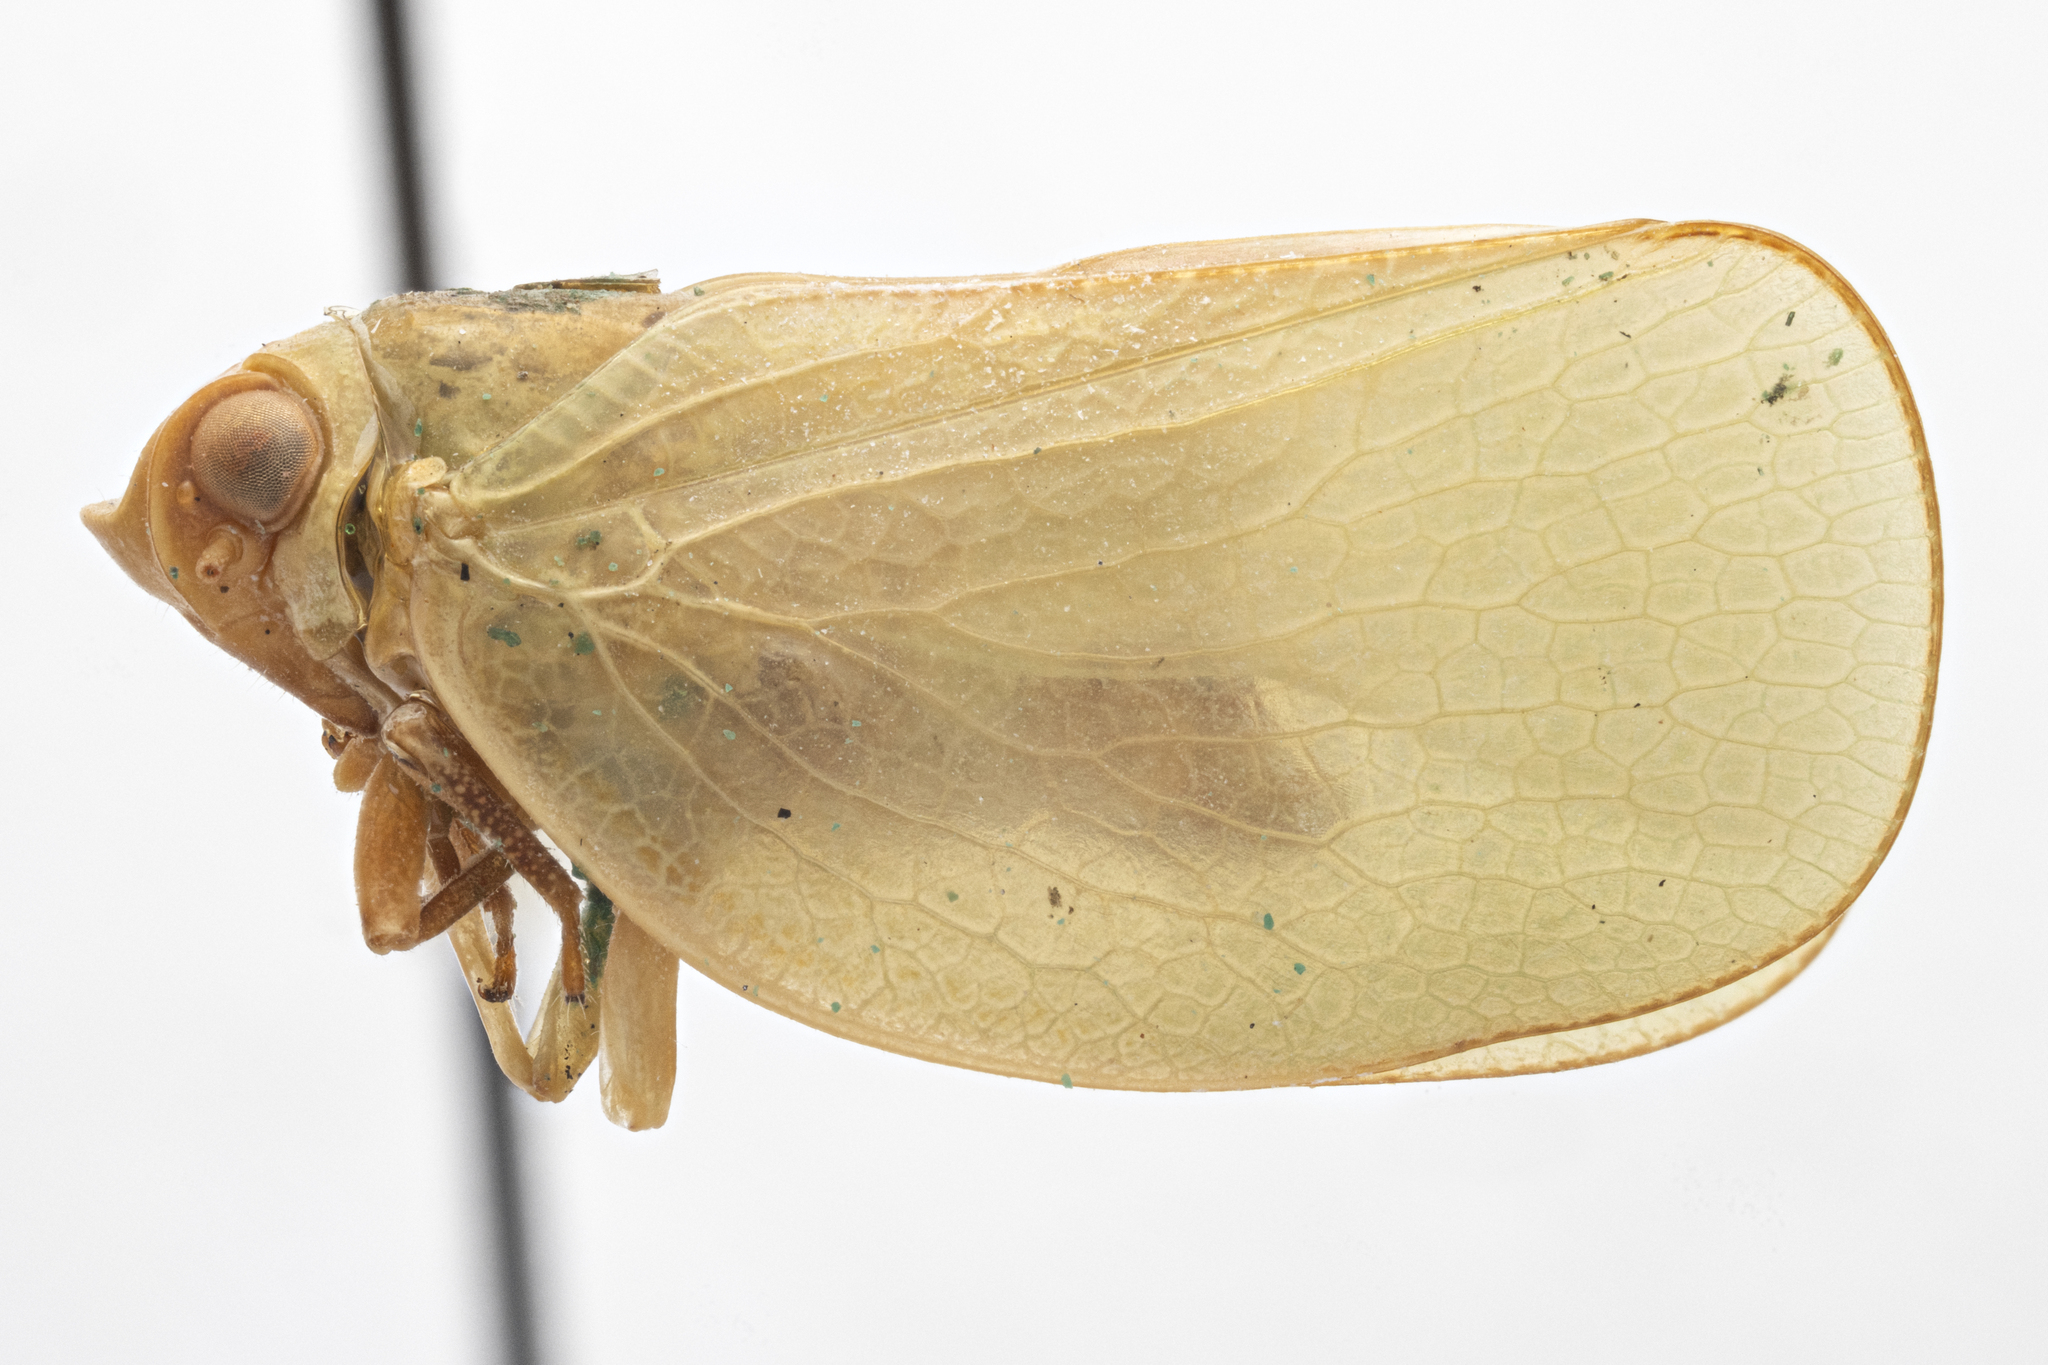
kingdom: Animalia
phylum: Arthropoda
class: Insecta
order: Hemiptera
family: Acanaloniidae
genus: Bulldolonia
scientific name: Bulldolonia brevifrons
